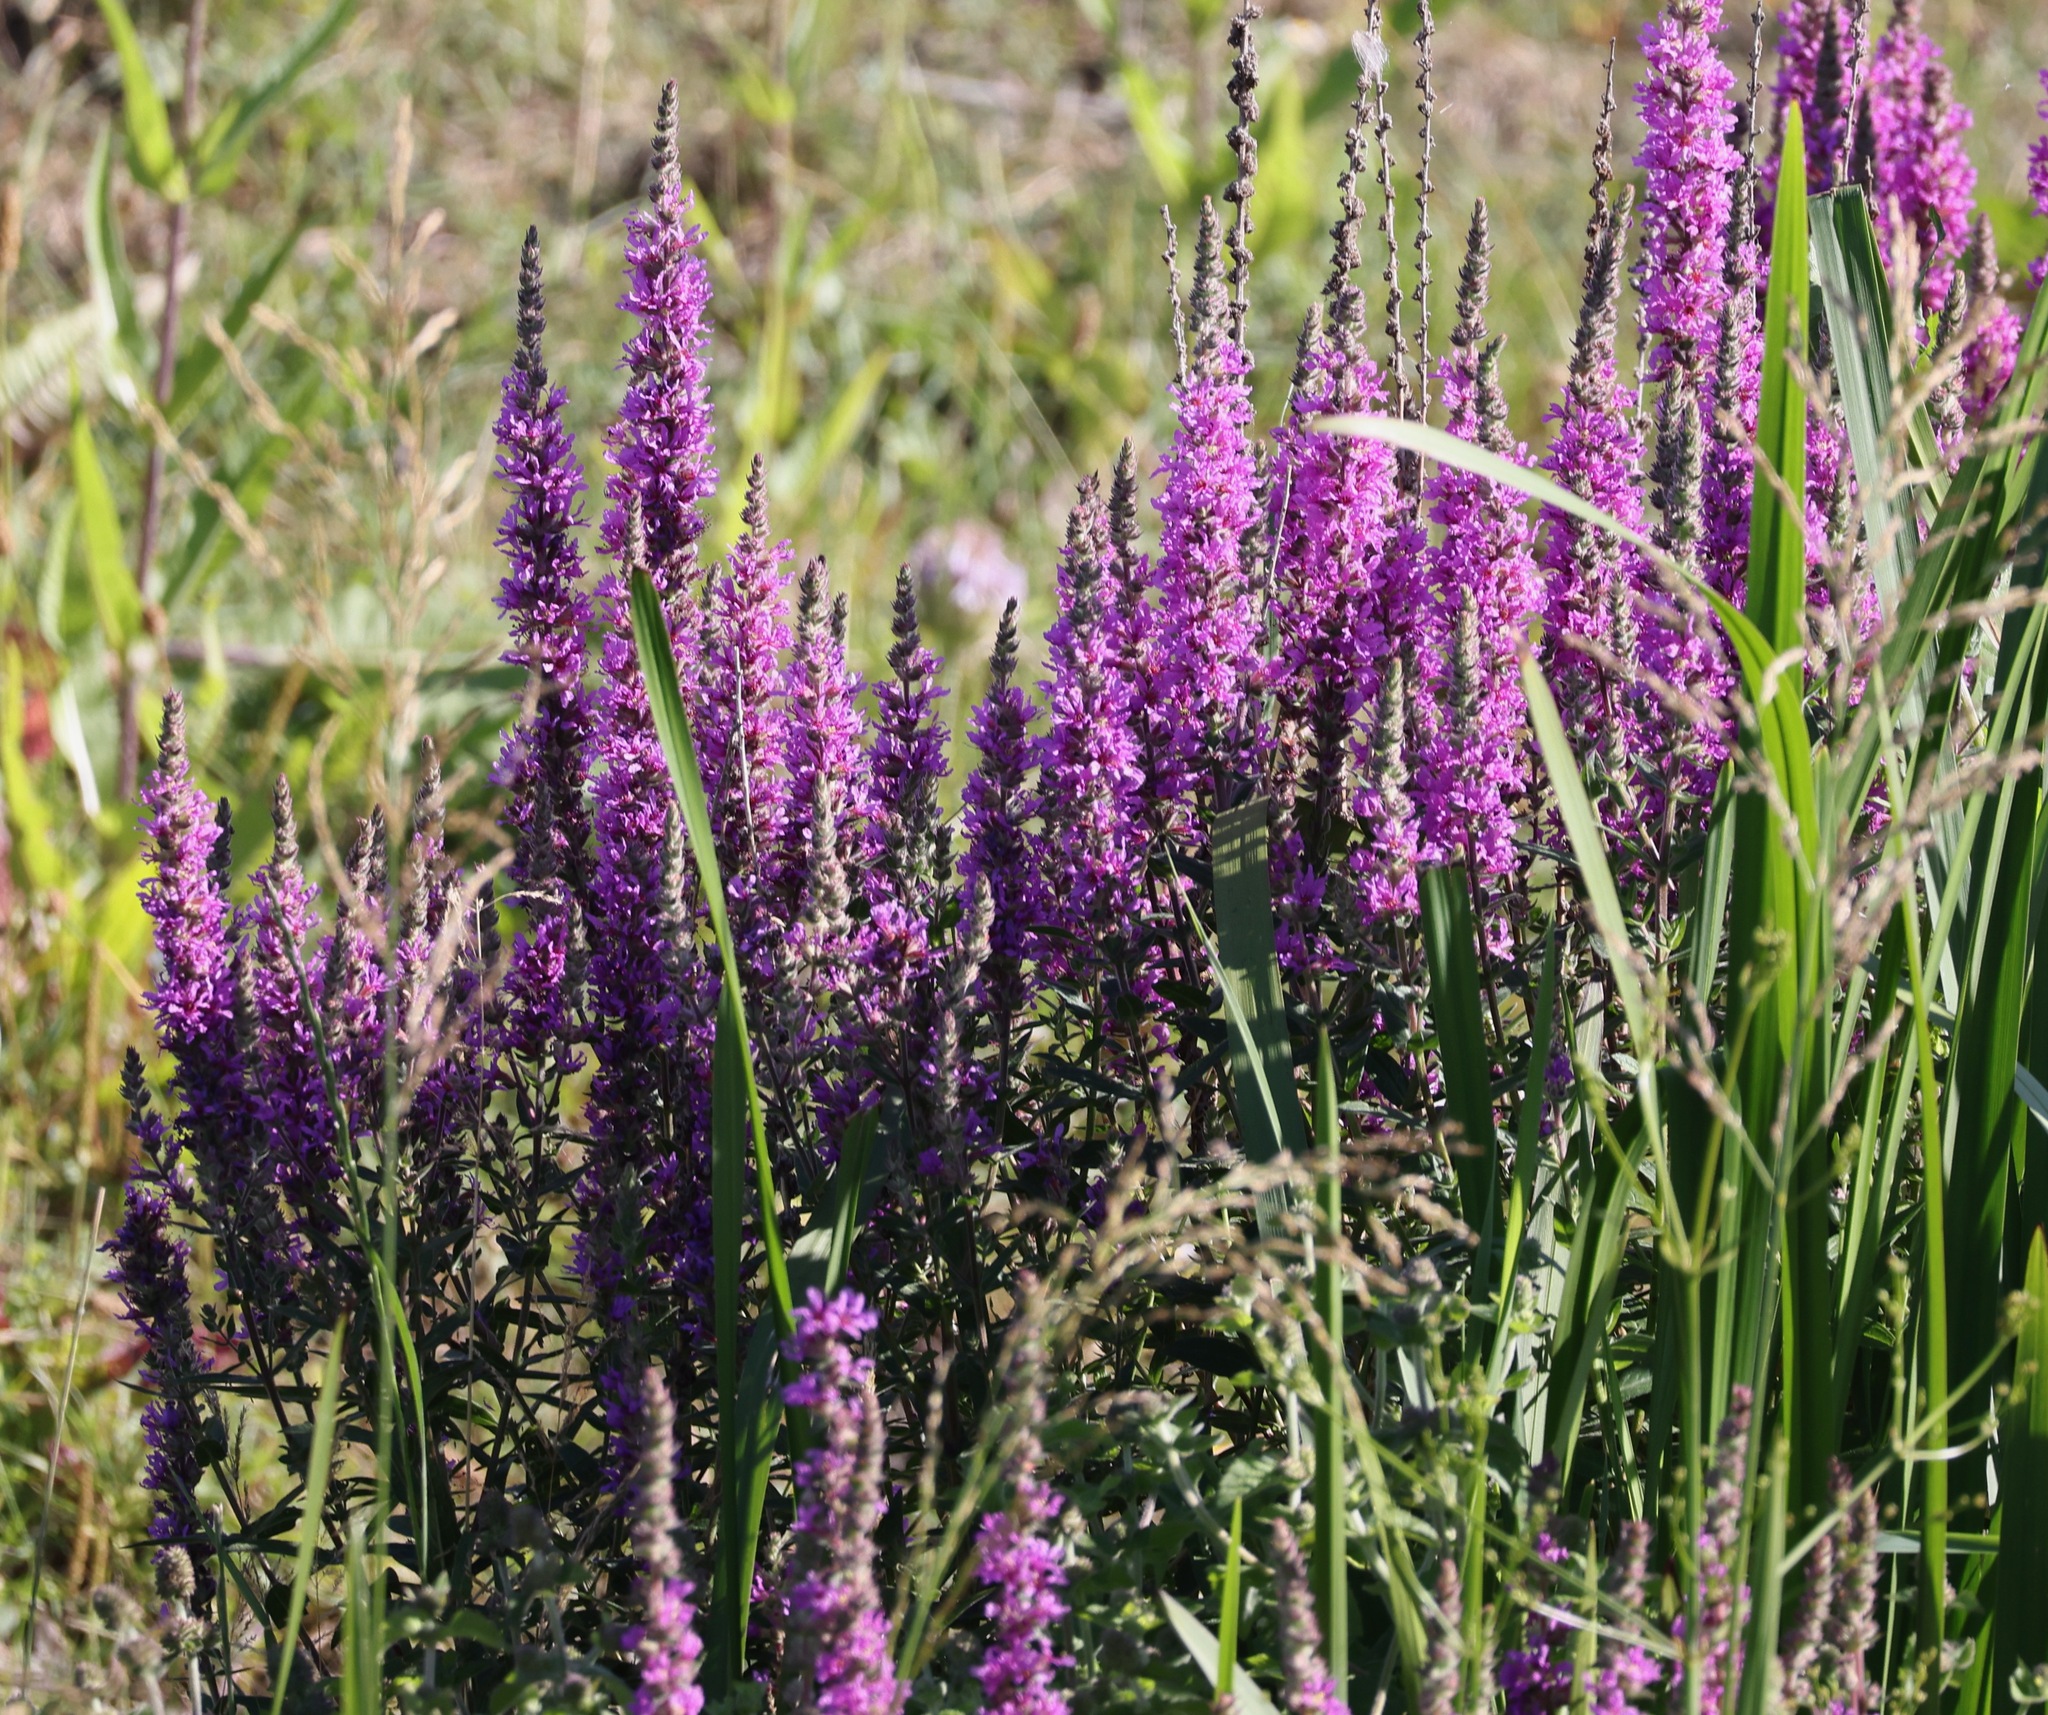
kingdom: Plantae
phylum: Tracheophyta
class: Magnoliopsida
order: Myrtales
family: Lythraceae
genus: Lythrum
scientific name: Lythrum salicaria
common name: Purple loosestrife
